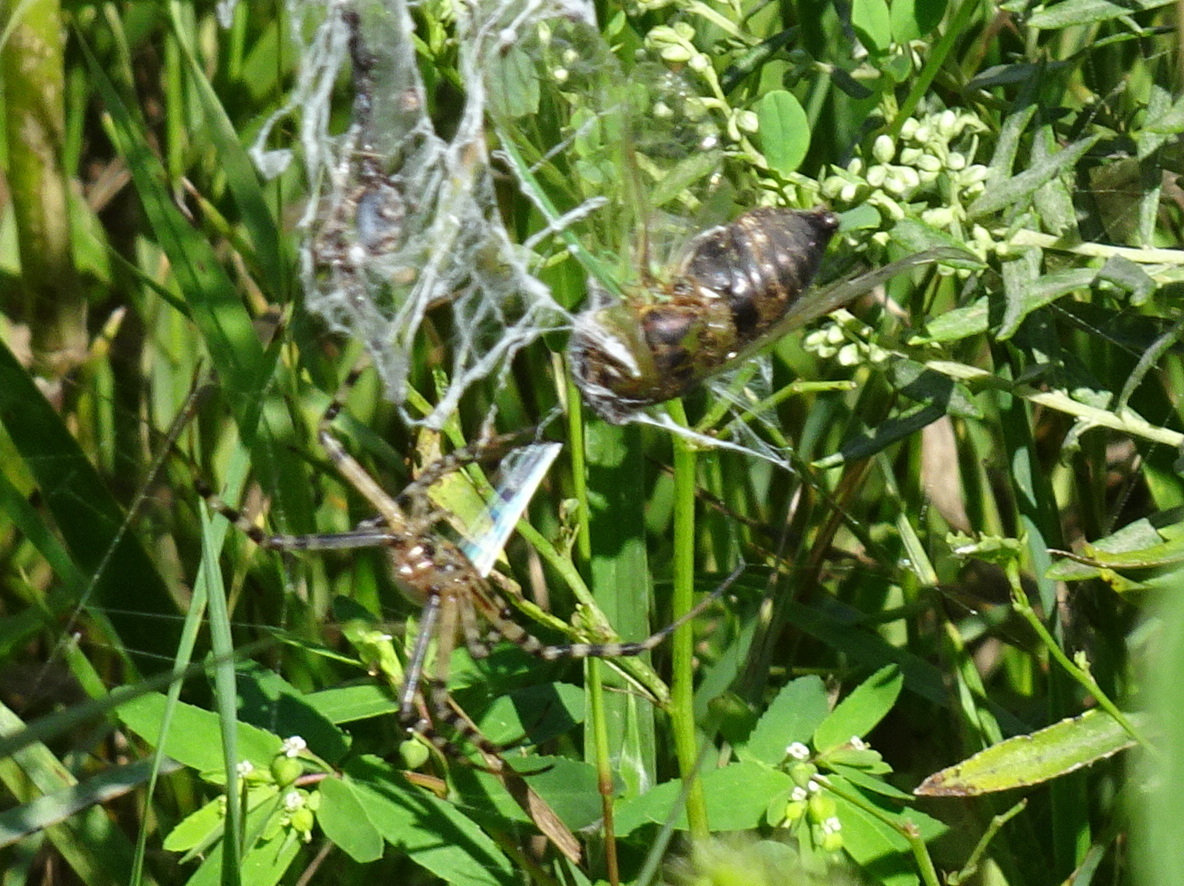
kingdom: Animalia
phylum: Arthropoda
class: Arachnida
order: Araneae
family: Araneidae
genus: Argiope
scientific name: Argiope trifasciata
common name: Banded garden spider
